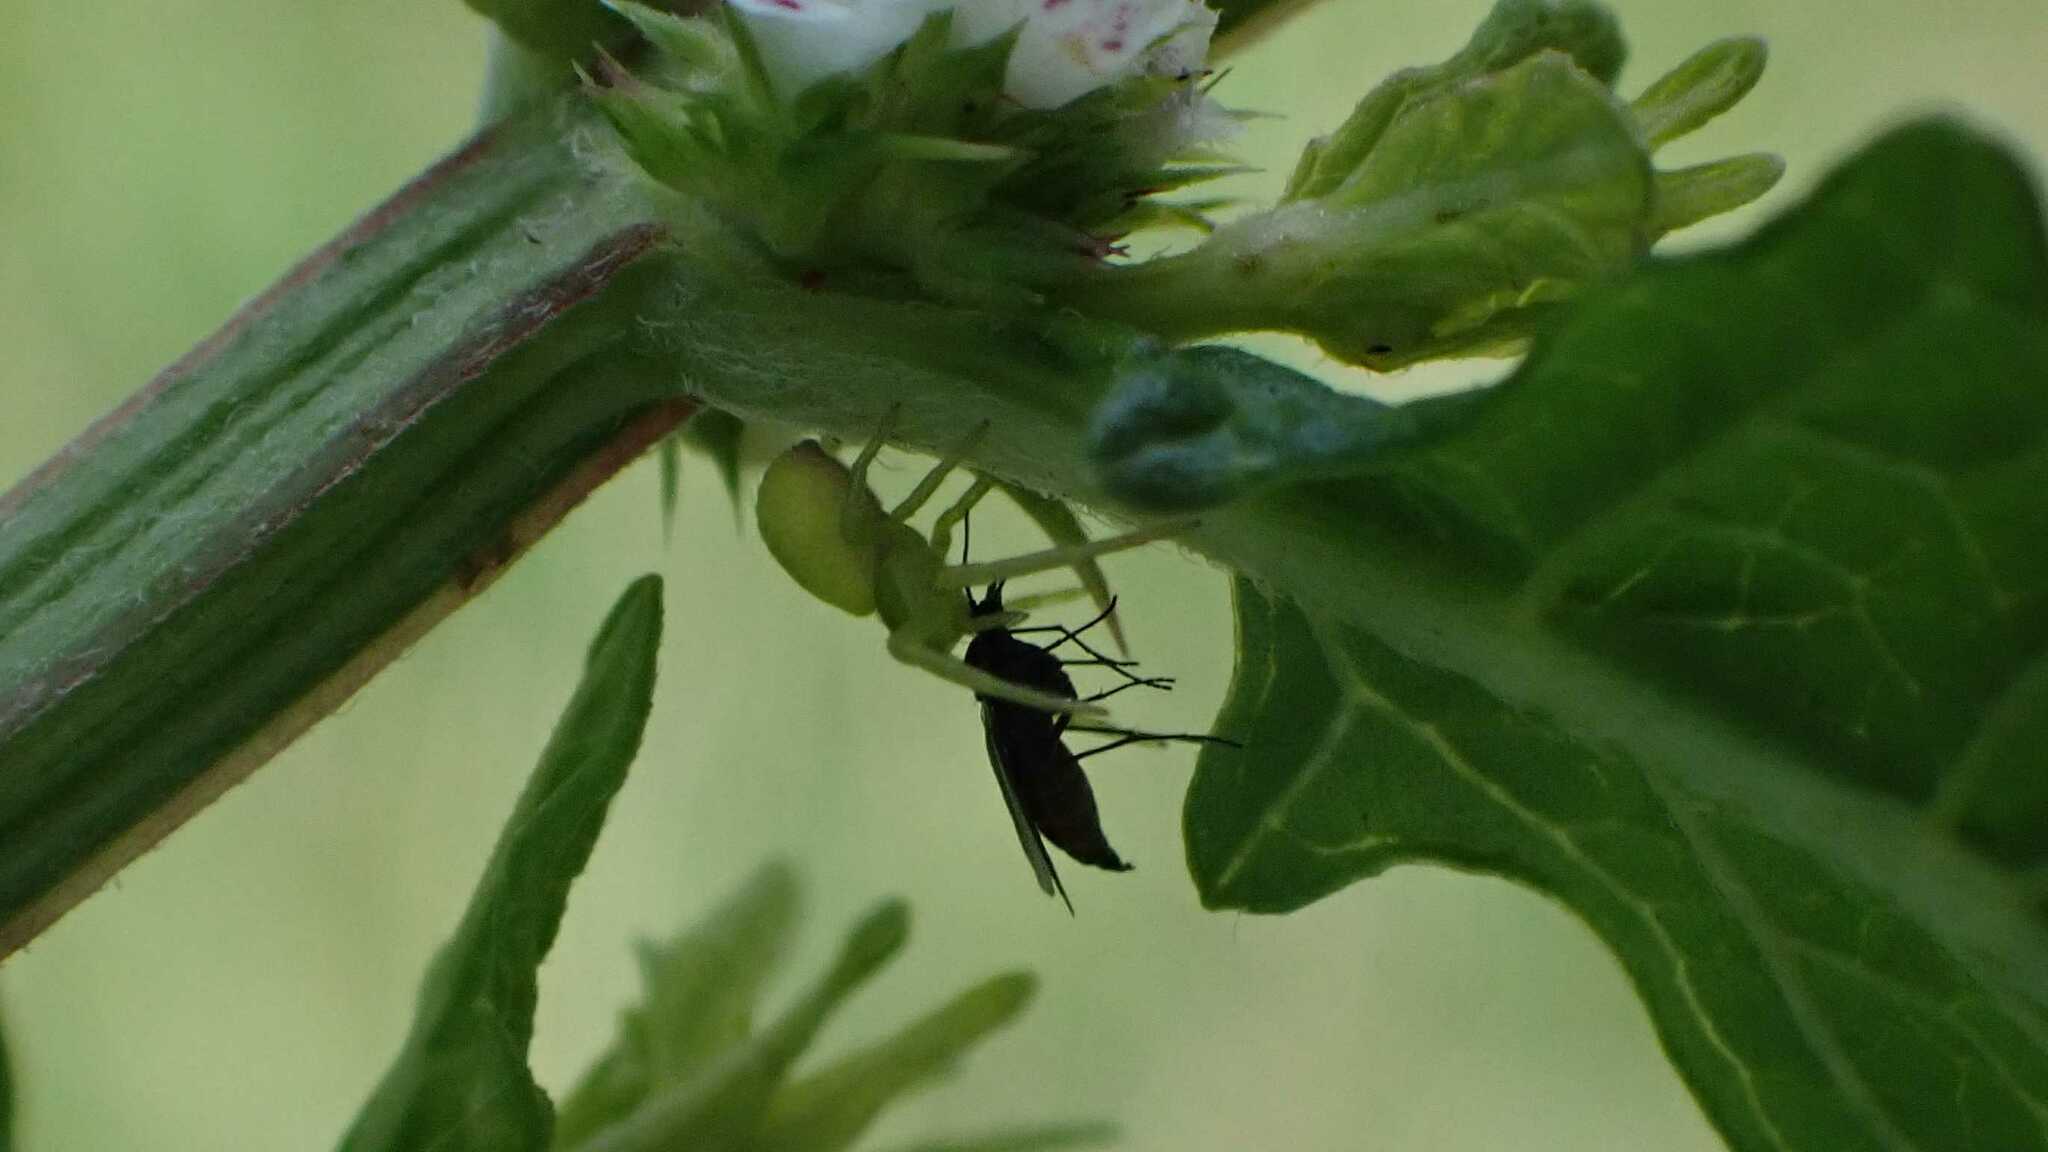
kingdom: Animalia
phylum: Arthropoda
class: Arachnida
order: Araneae
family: Thomisidae
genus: Ebrechtella
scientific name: Ebrechtella tricuspidata
